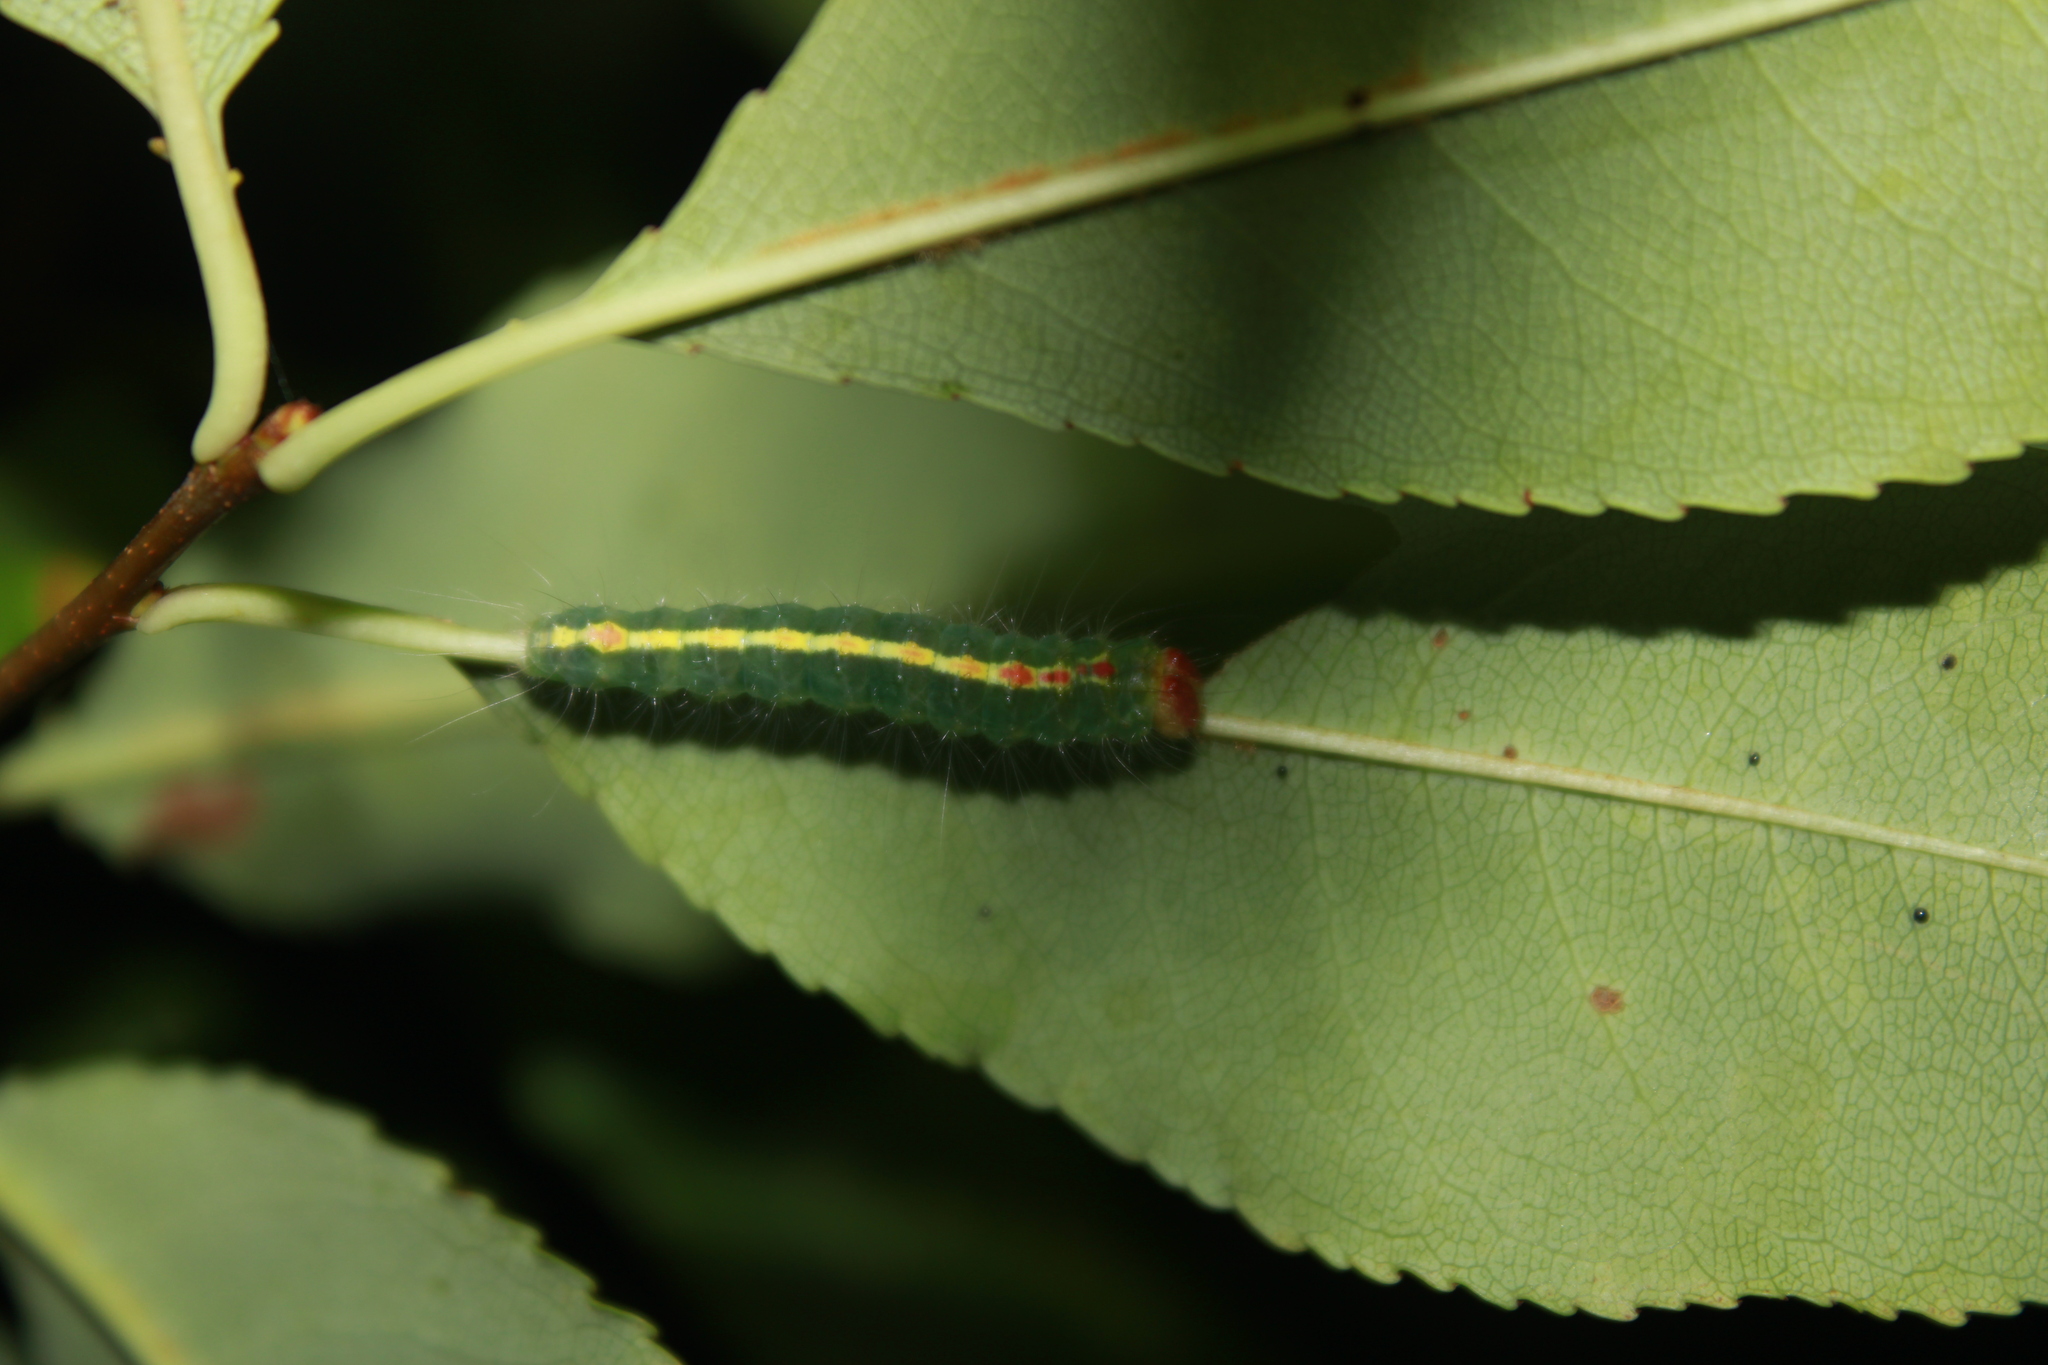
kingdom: Animalia
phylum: Arthropoda
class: Insecta
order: Lepidoptera
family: Noctuidae
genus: Acronicta
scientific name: Acronicta hasta
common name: Cherry dagger
